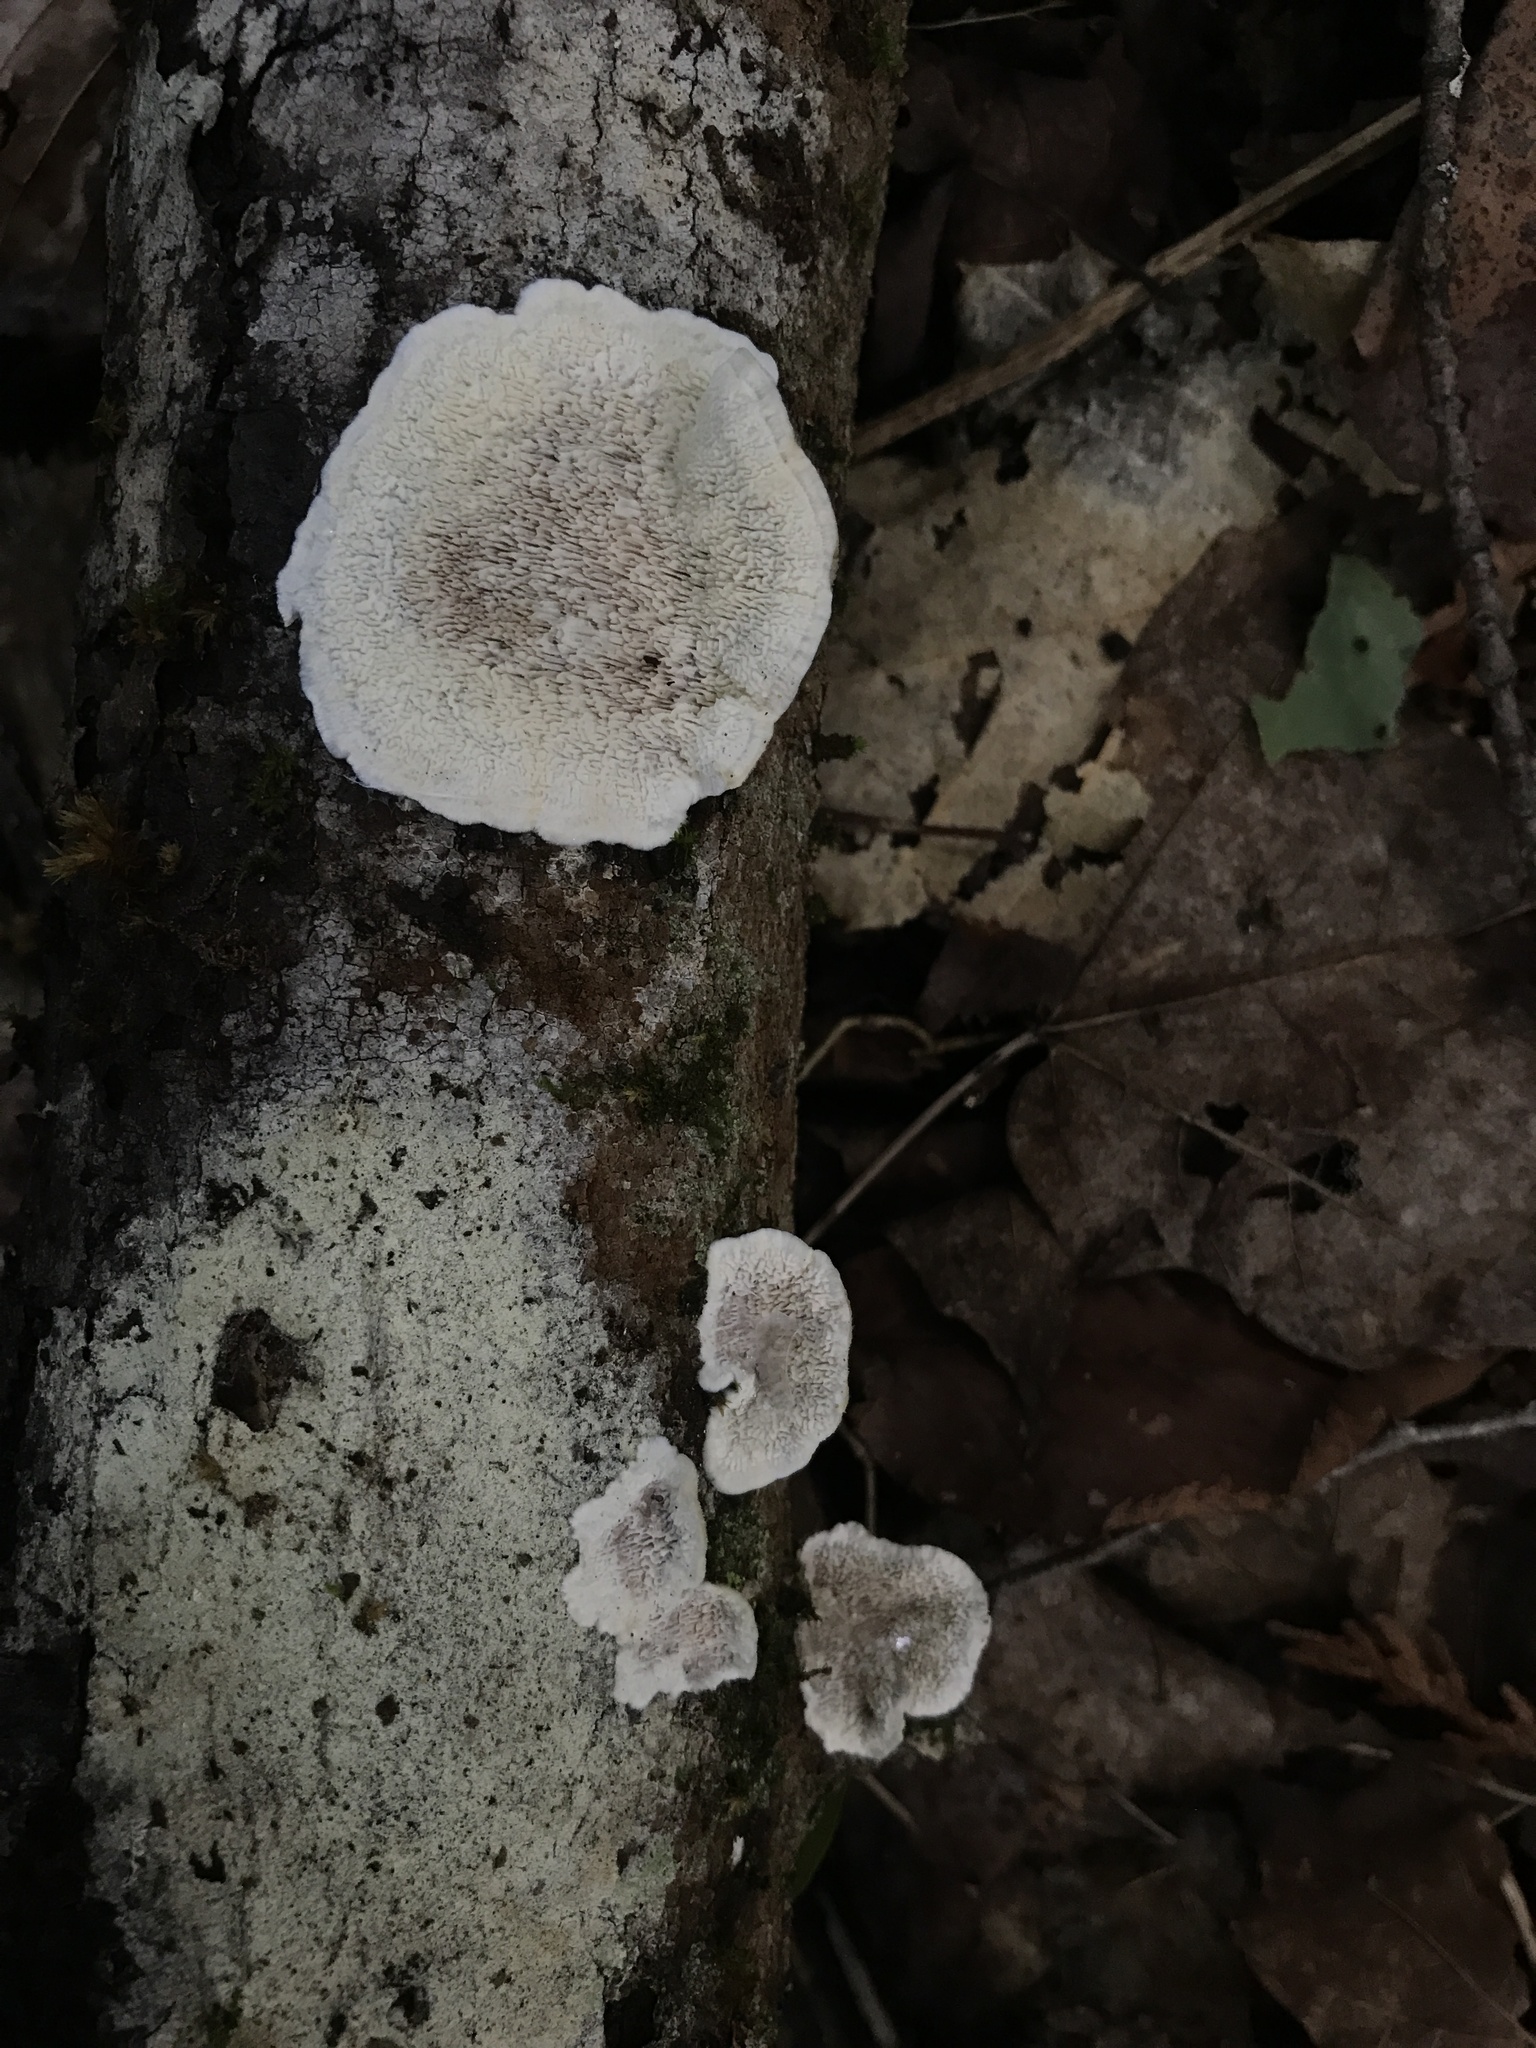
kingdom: Fungi
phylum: Basidiomycota
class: Agaricomycetes
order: Polyporales
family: Cerrenaceae
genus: Cerrena
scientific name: Cerrena unicolor
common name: Mossy maze polypore
